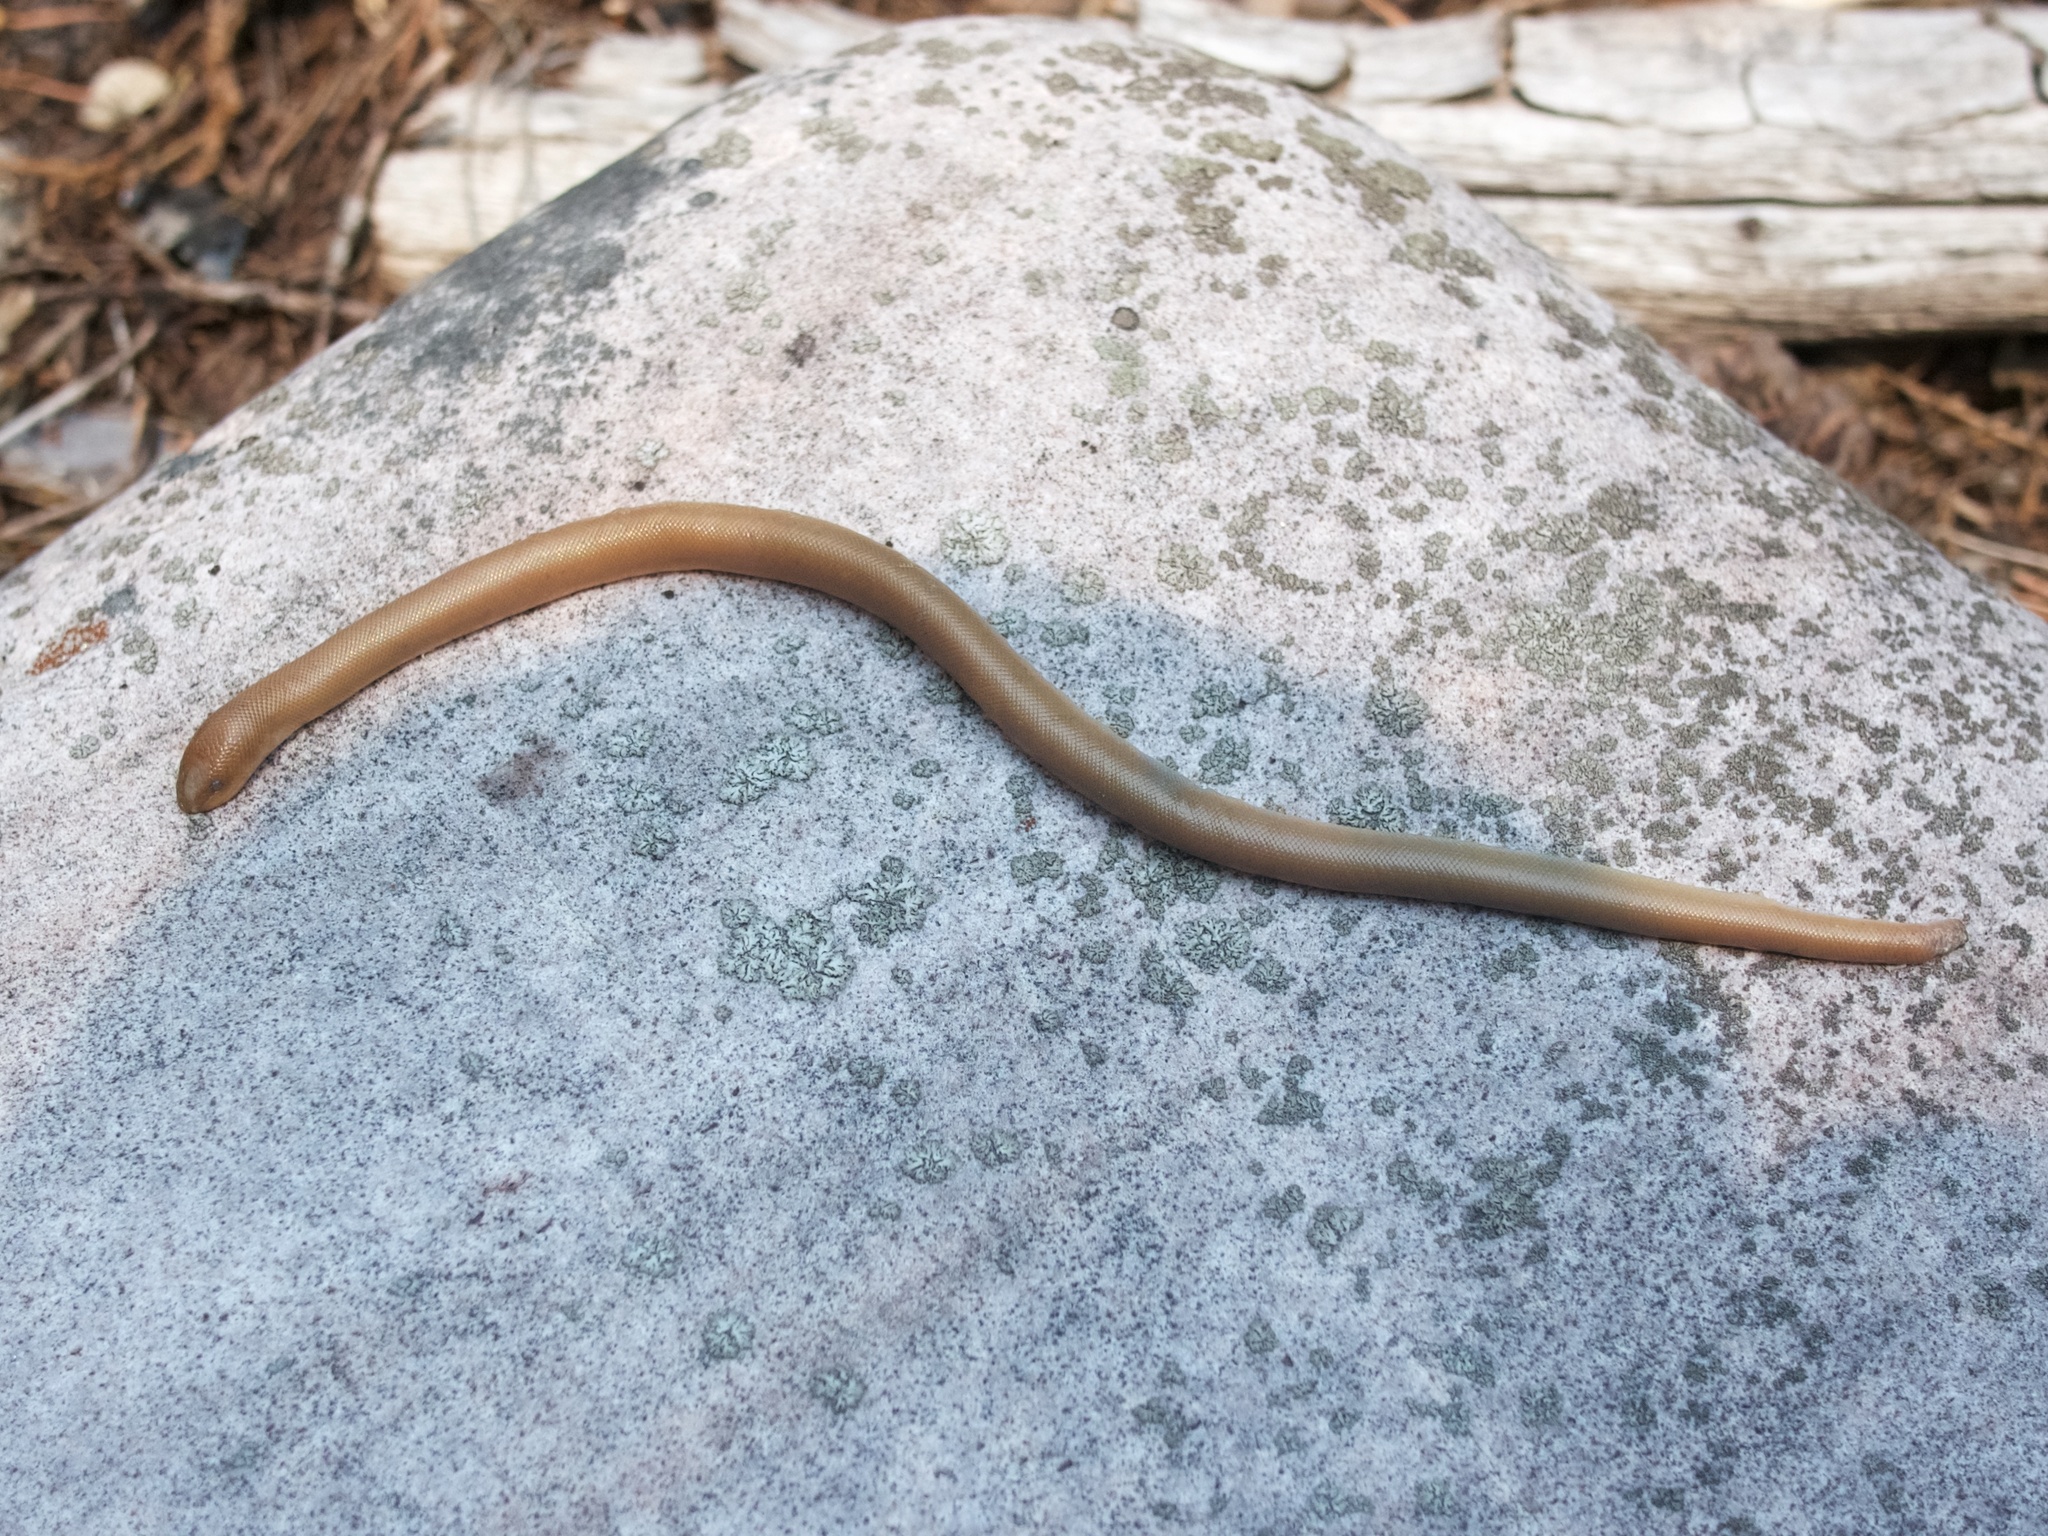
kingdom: Animalia
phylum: Chordata
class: Squamata
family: Boidae
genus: Charina
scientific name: Charina bottae
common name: Northern rubber boa
